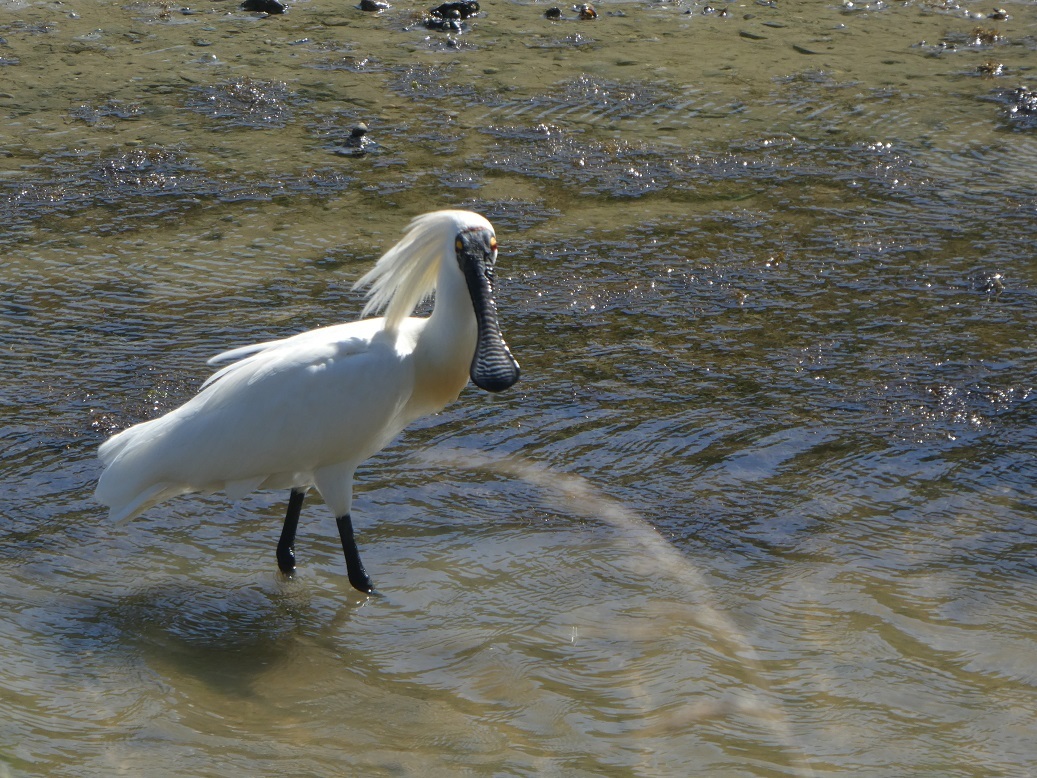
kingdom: Animalia
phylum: Chordata
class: Aves
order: Pelecaniformes
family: Threskiornithidae
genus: Platalea
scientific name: Platalea regia
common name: Royal spoonbill
